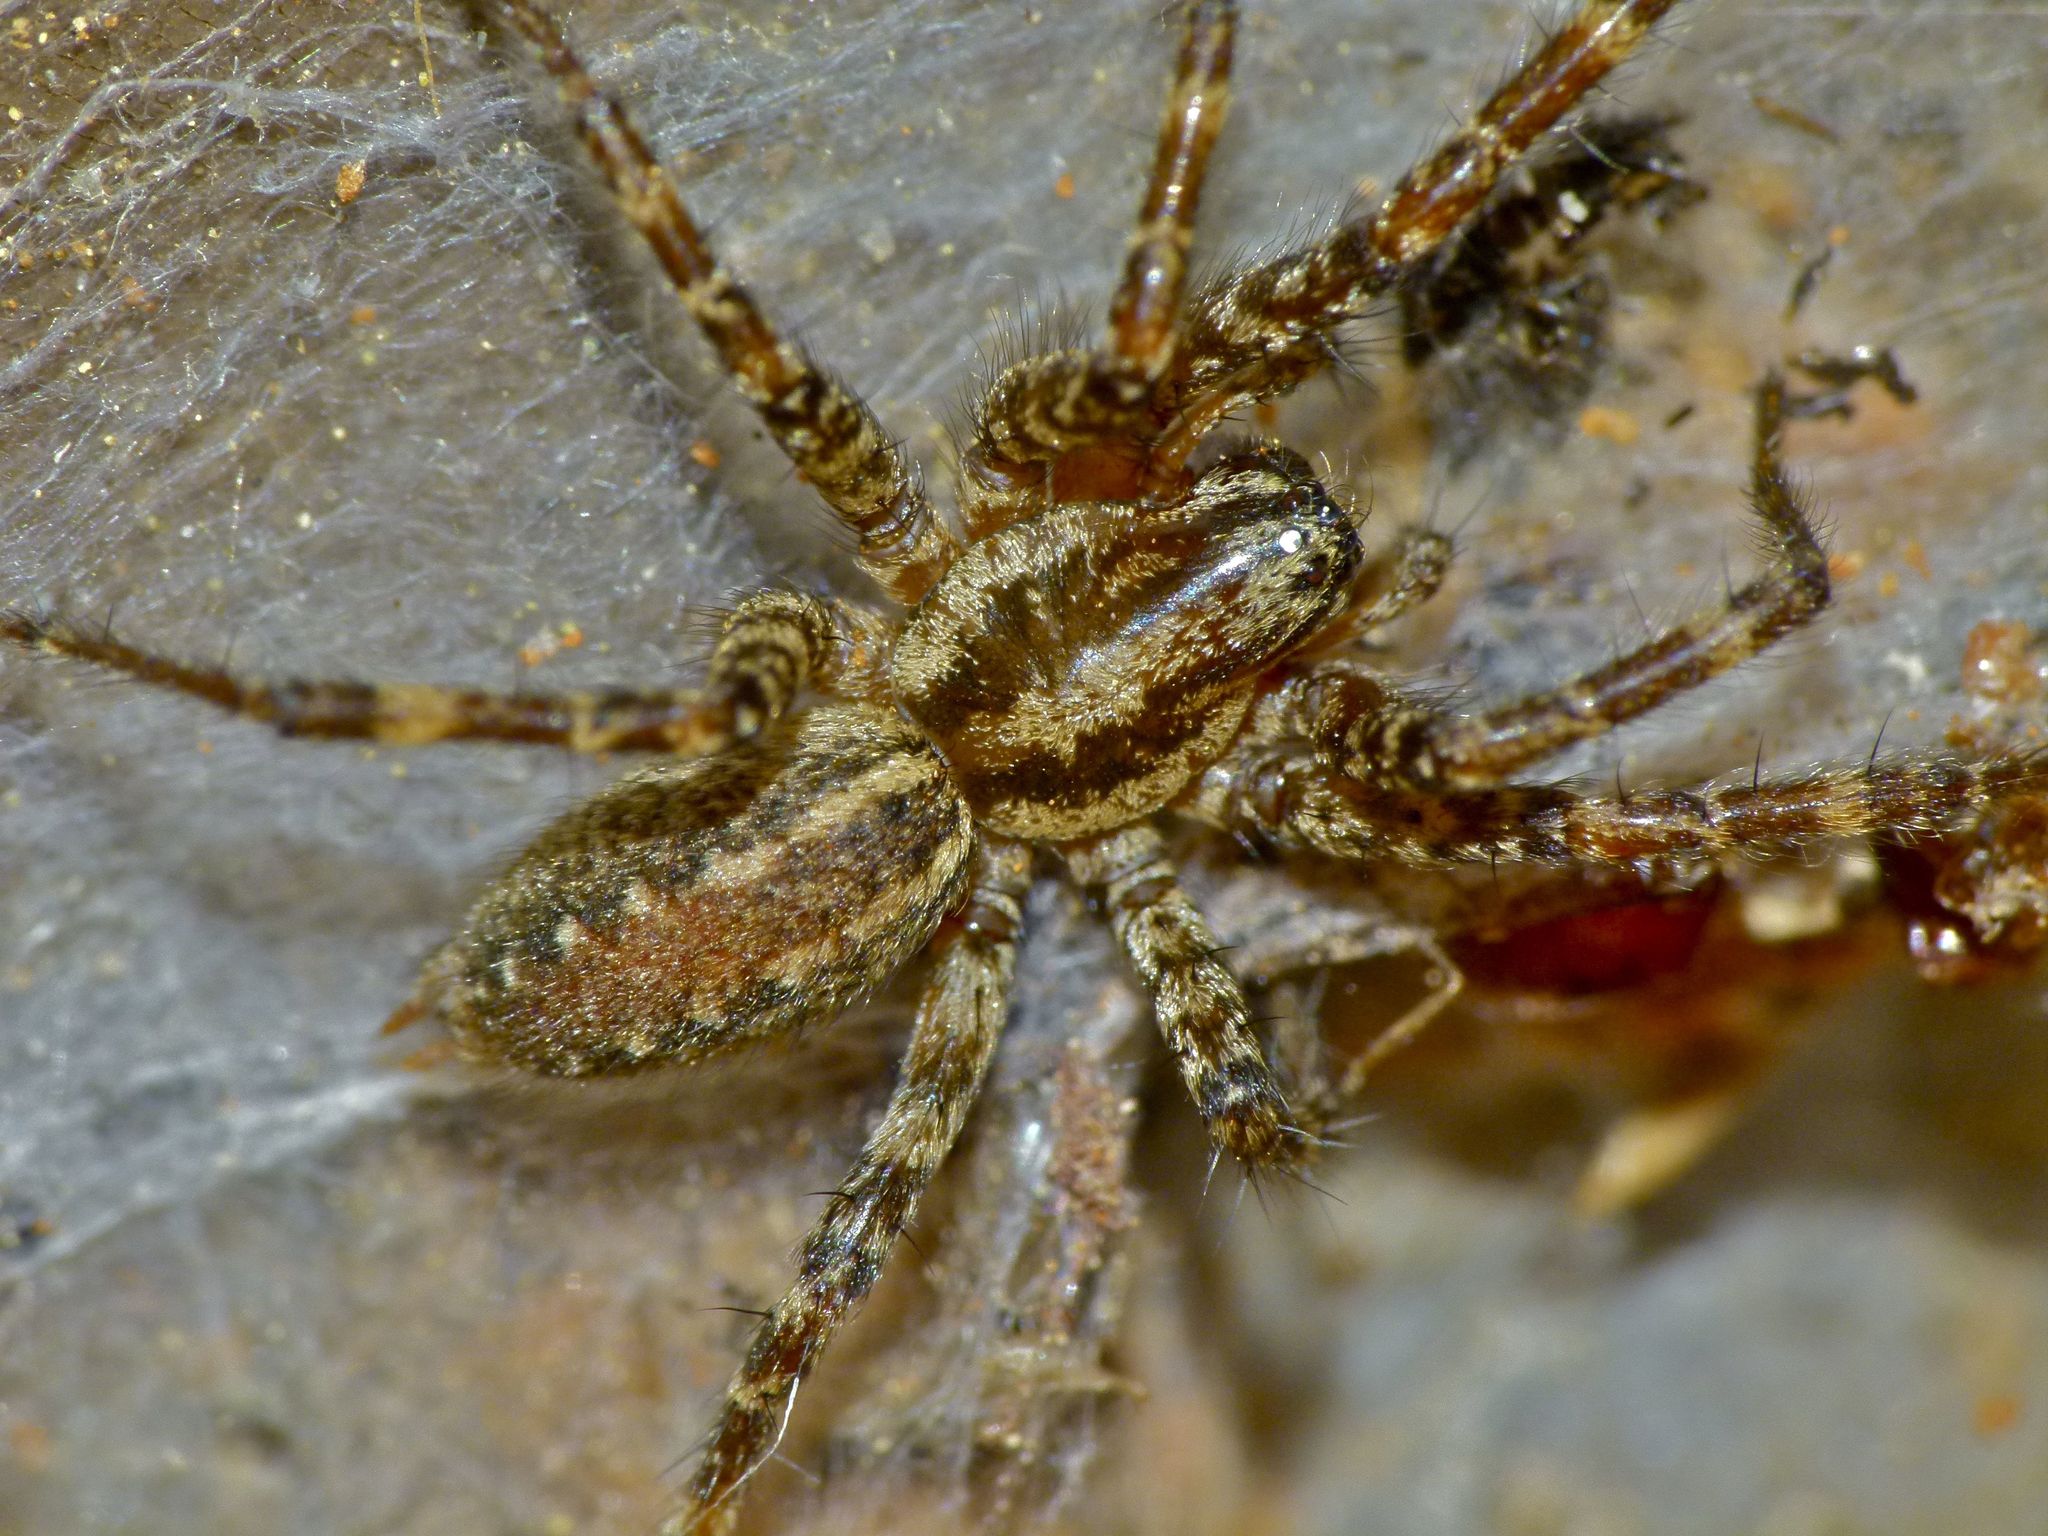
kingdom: Animalia
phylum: Arthropoda
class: Arachnida
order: Araneae
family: Agelenidae
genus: Barronopsis
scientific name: Barronopsis texana
